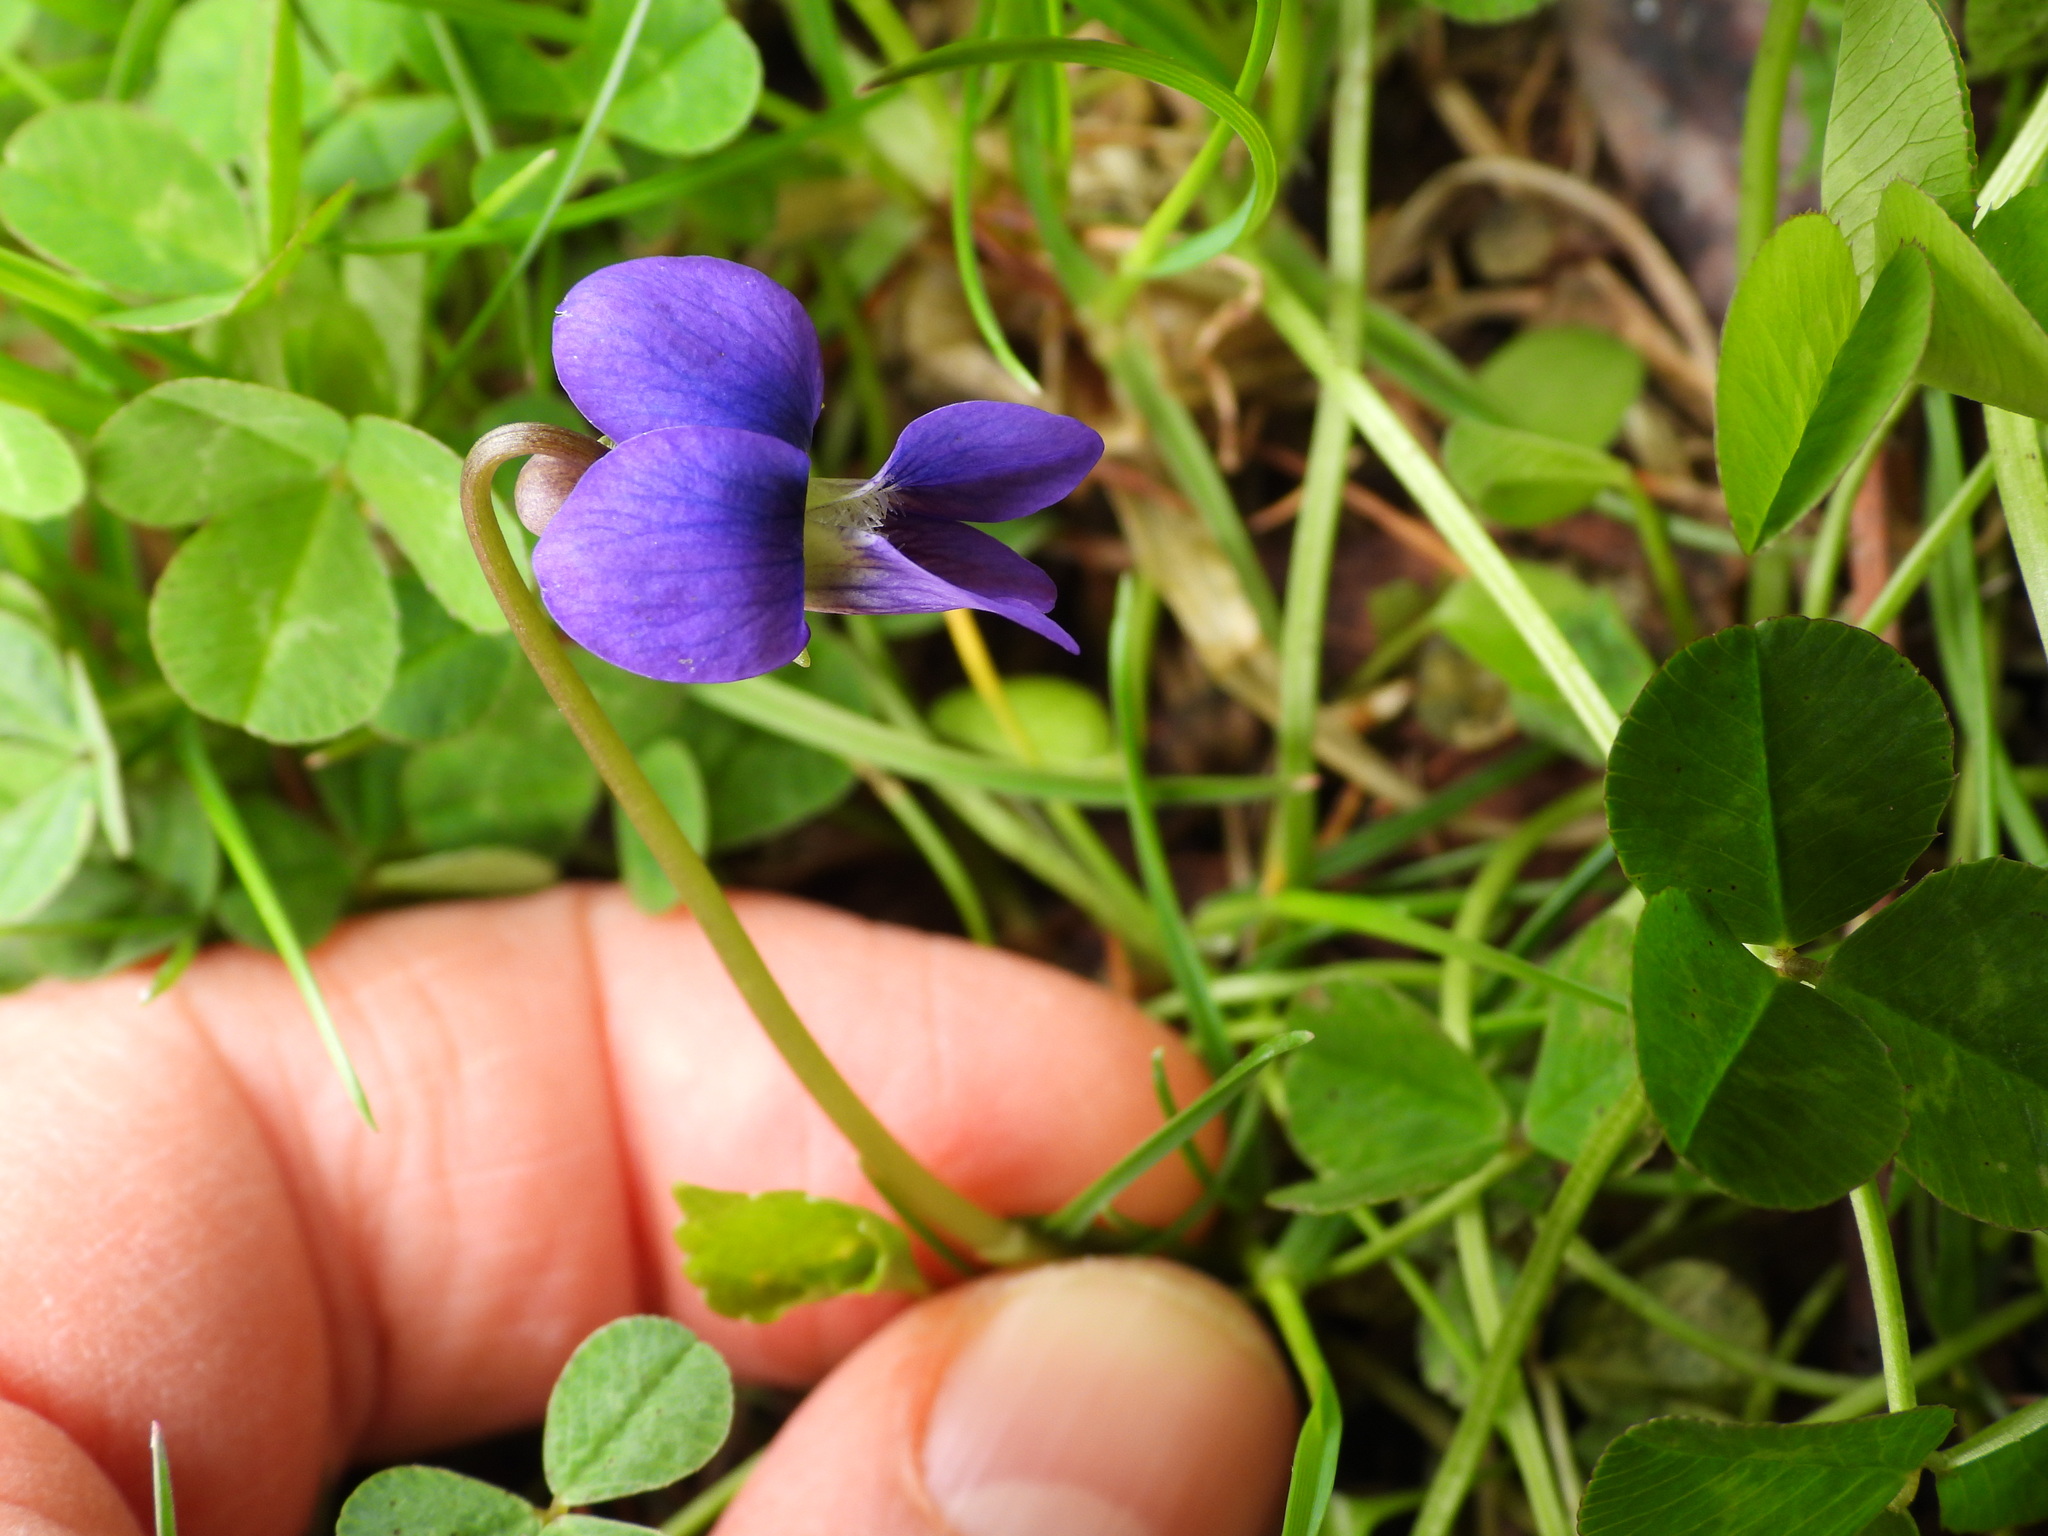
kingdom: Plantae
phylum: Tracheophyta
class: Magnoliopsida
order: Malpighiales
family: Violaceae
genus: Viola
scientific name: Viola sororia
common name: Dooryard violet
